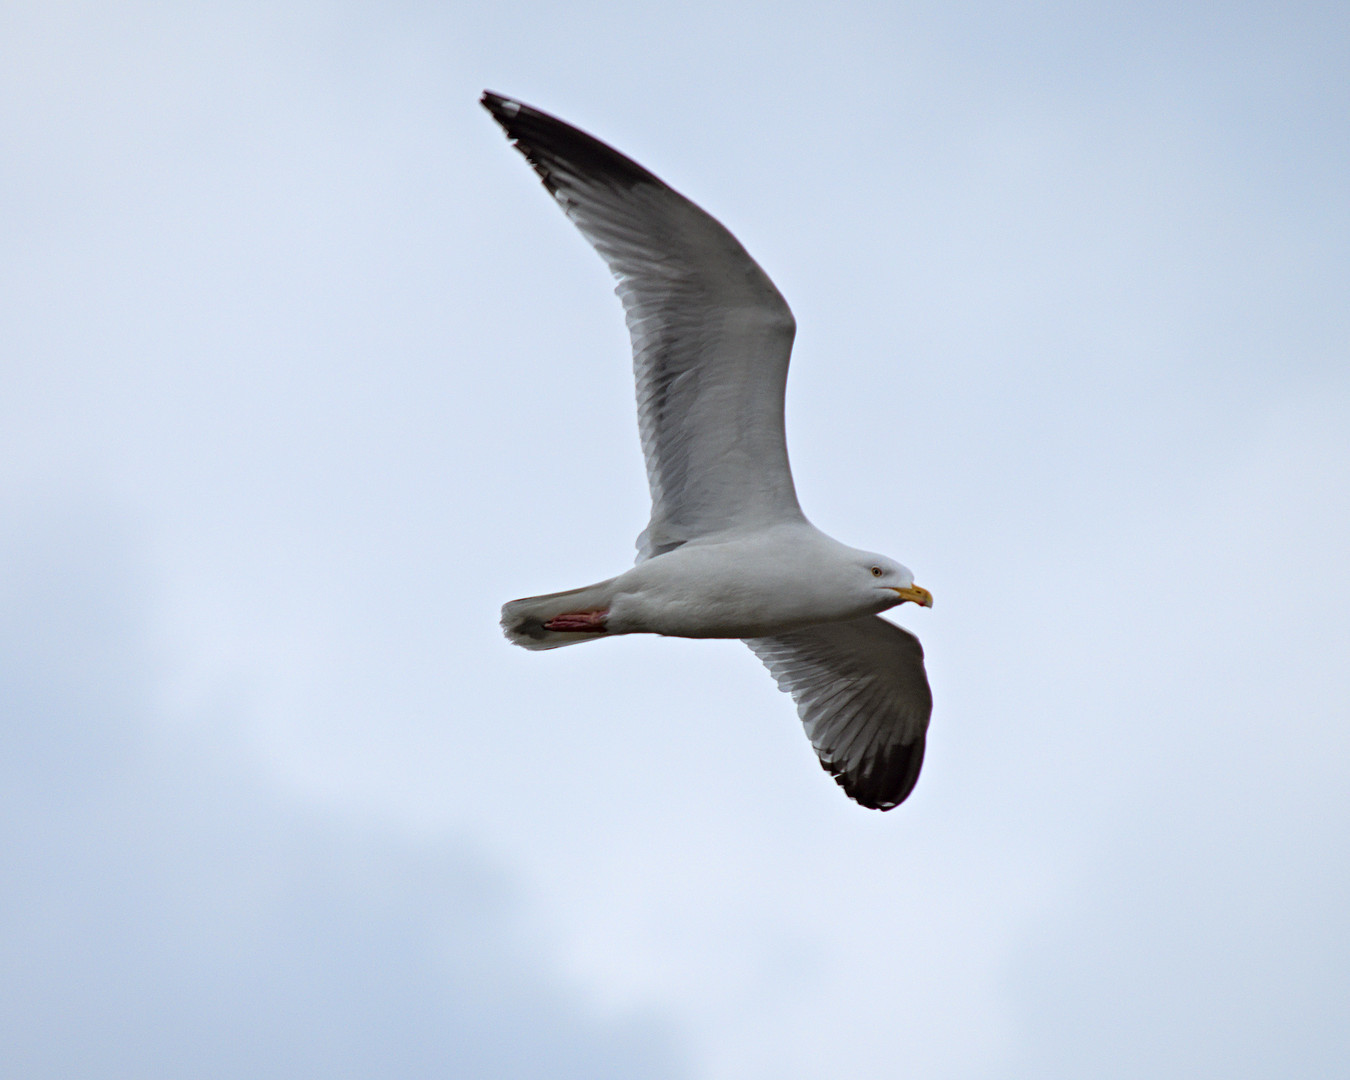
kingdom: Animalia
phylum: Chordata
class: Aves
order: Charadriiformes
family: Laridae
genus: Larus
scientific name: Larus argentatus
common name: Herring gull
